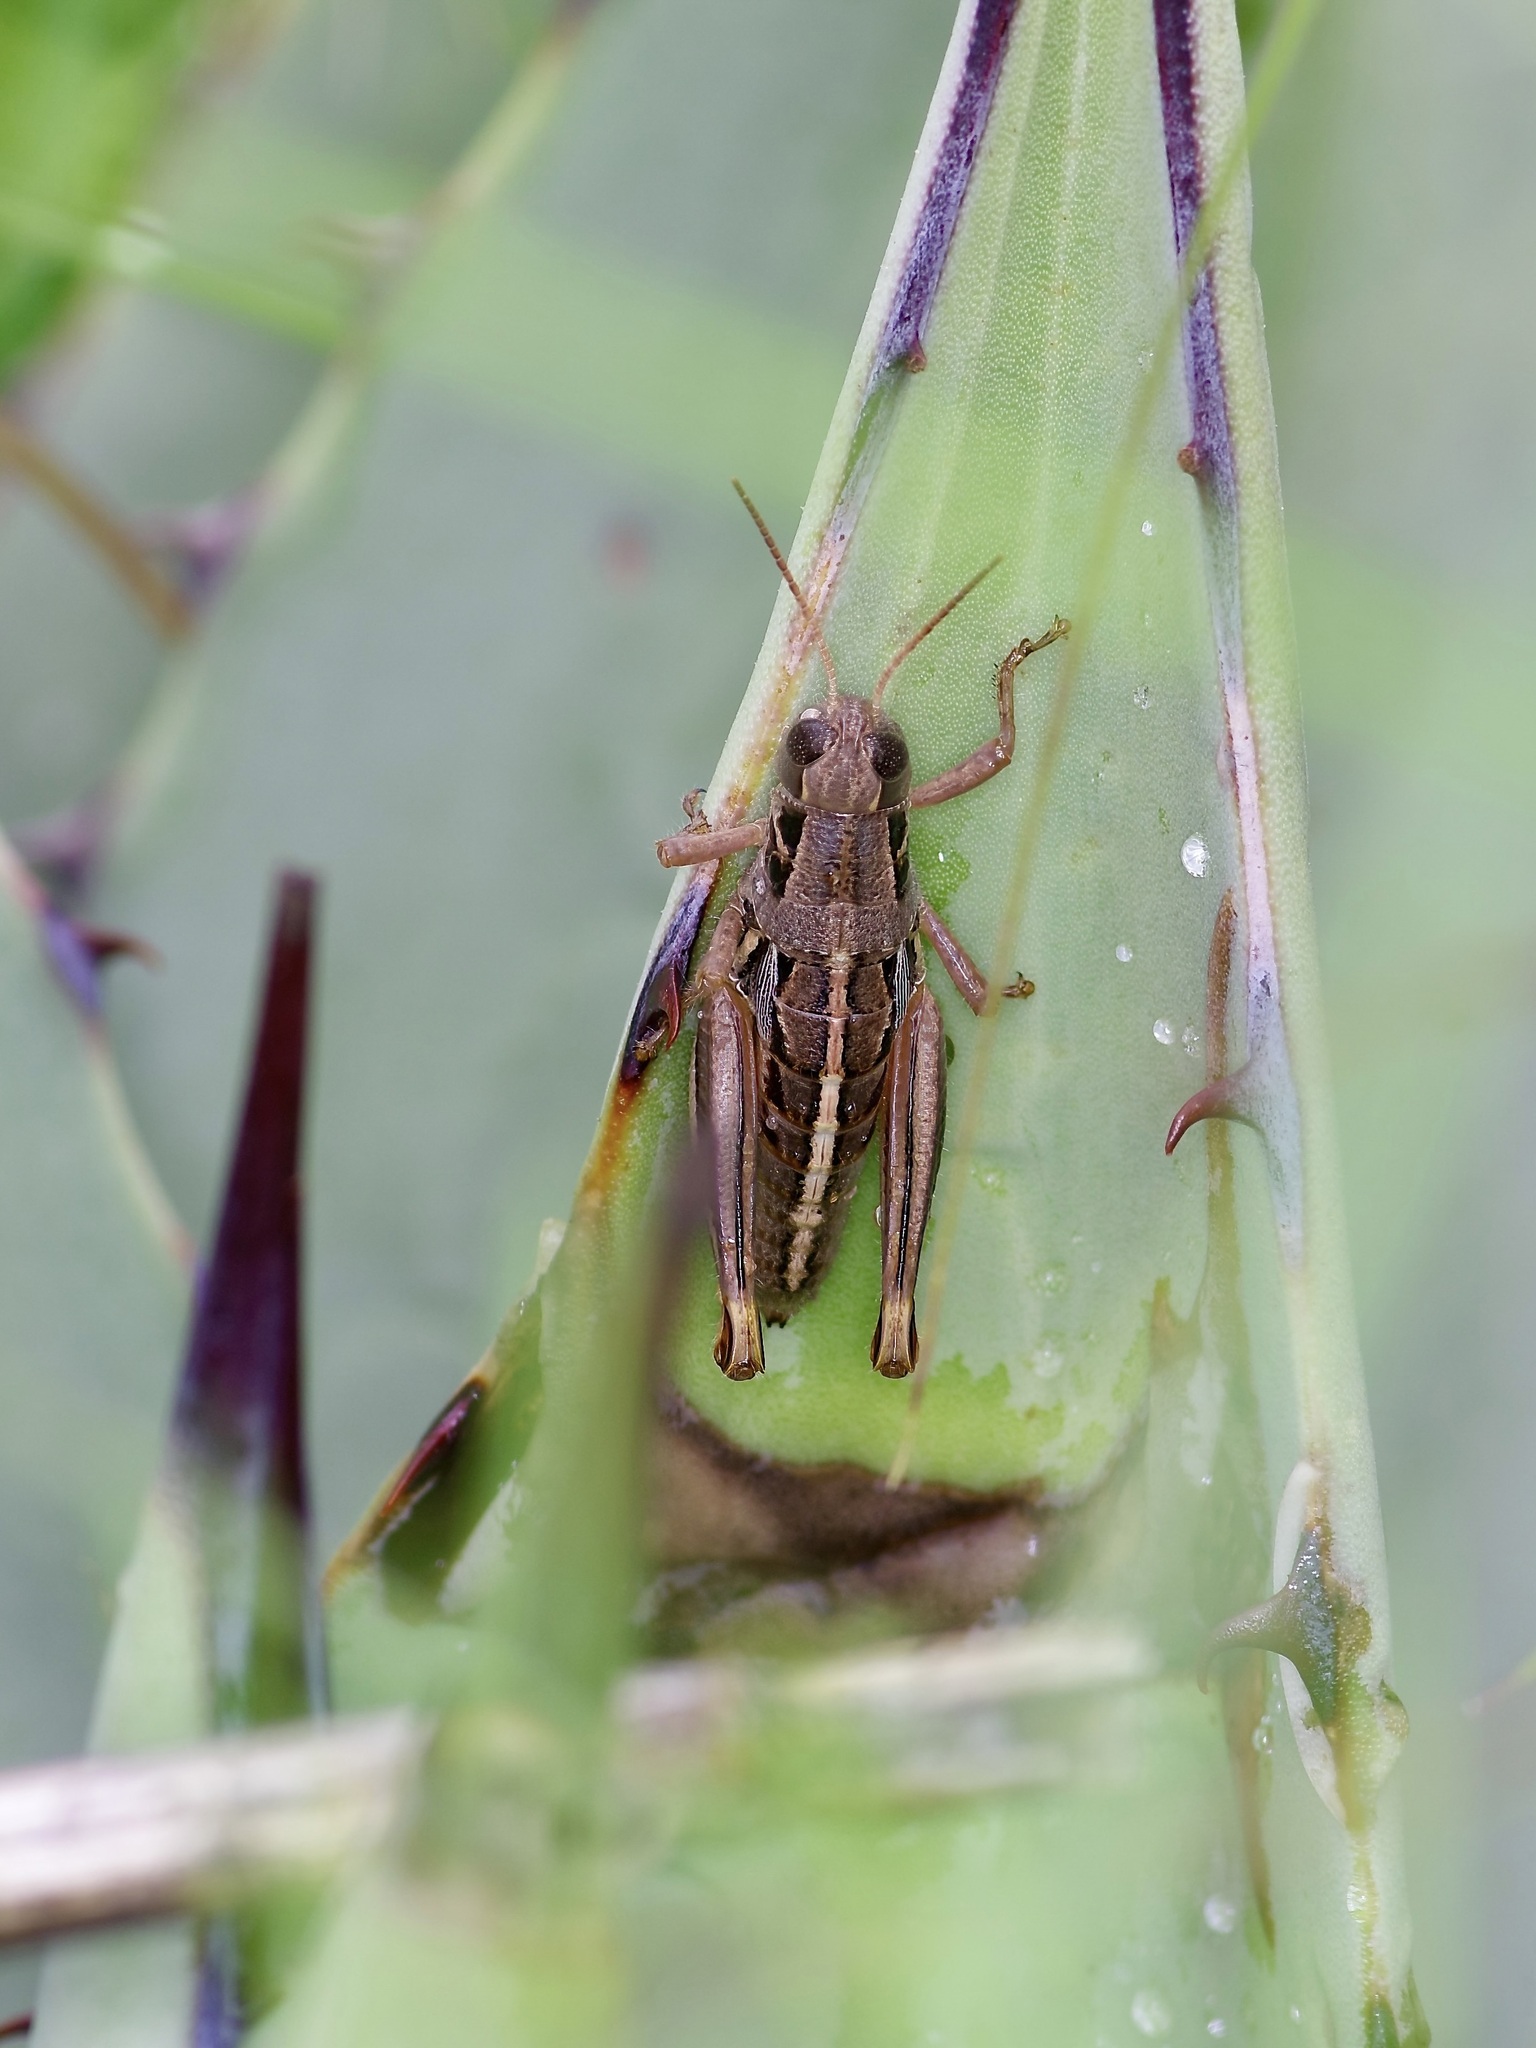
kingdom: Animalia
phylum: Arthropoda
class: Insecta
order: Orthoptera
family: Acrididae
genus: Barytettix
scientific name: Barytettix humphreysii
